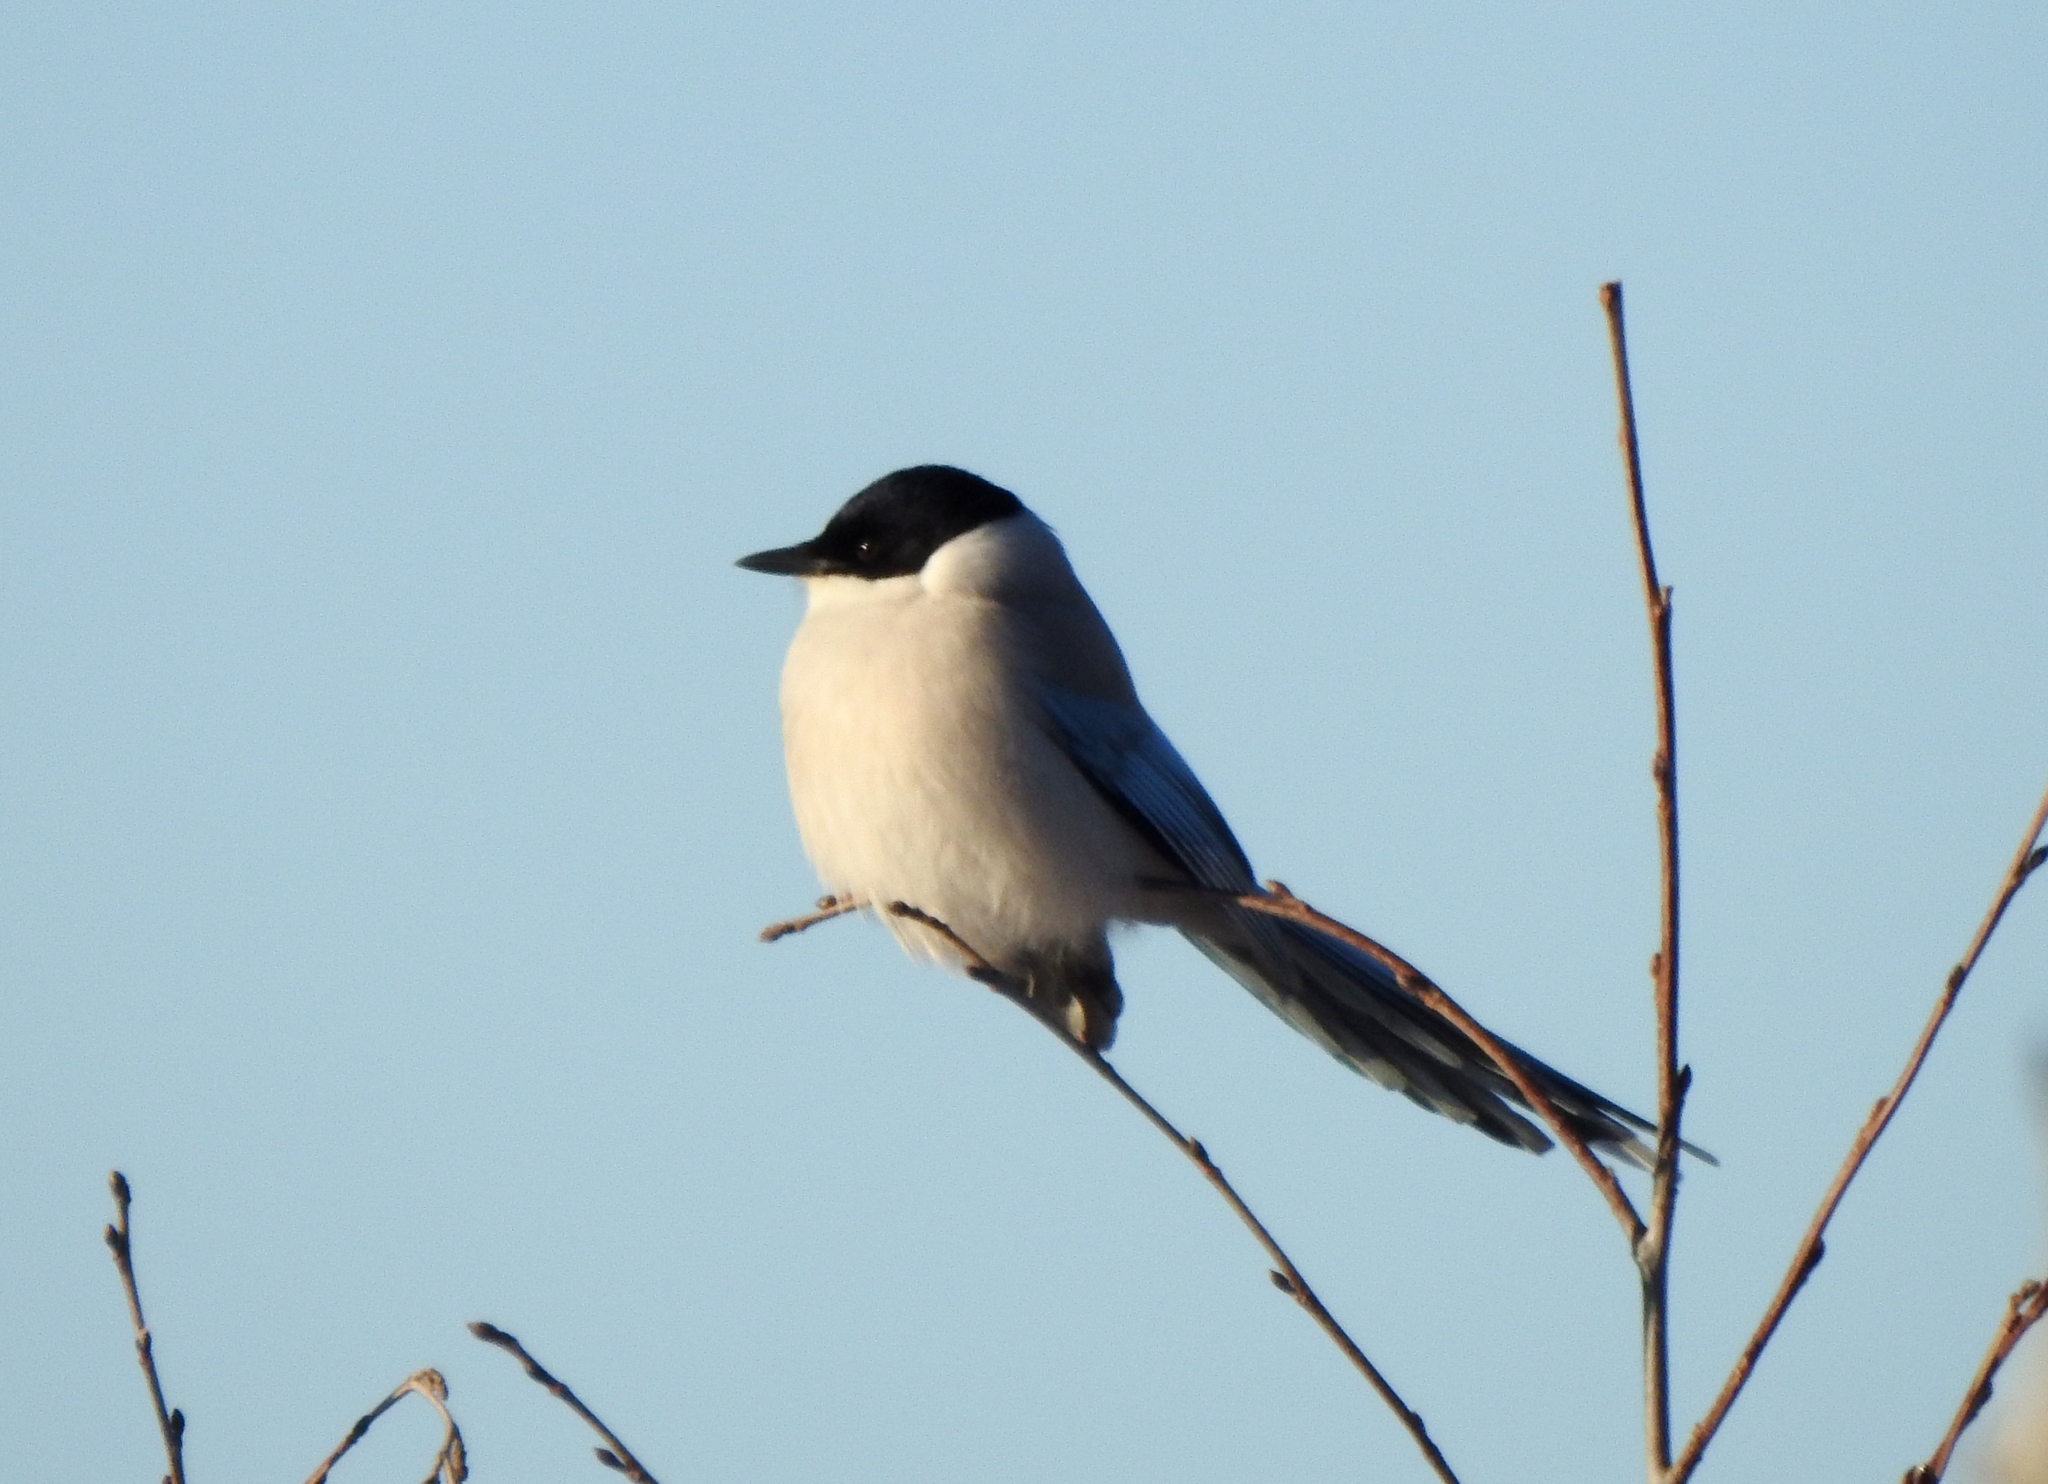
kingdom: Animalia
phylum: Chordata
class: Aves
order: Passeriformes
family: Corvidae
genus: Cyanopica
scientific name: Cyanopica cyanus
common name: Azure-winged magpie
